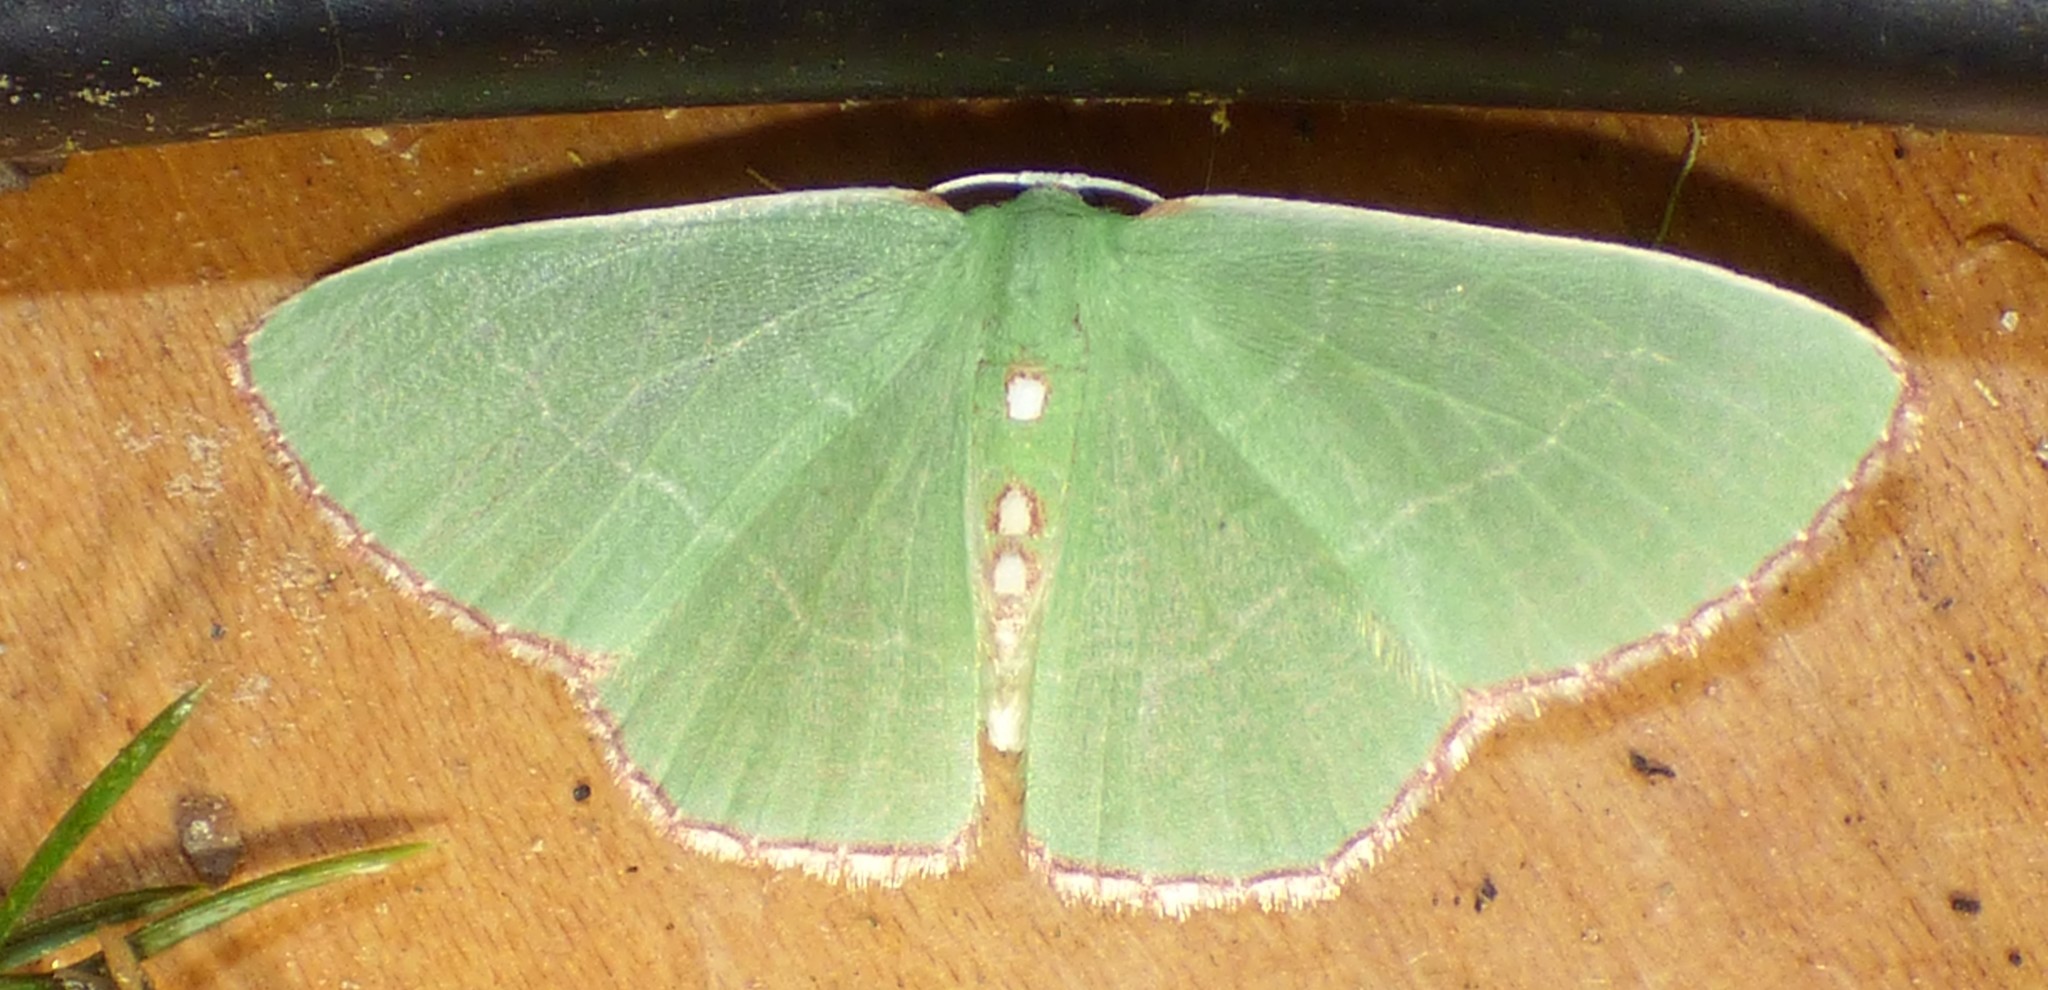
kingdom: Animalia
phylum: Arthropoda
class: Insecta
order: Lepidoptera
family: Geometridae
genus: Nemoria
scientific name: Nemoria lixaria
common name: Red-bordered emerald
